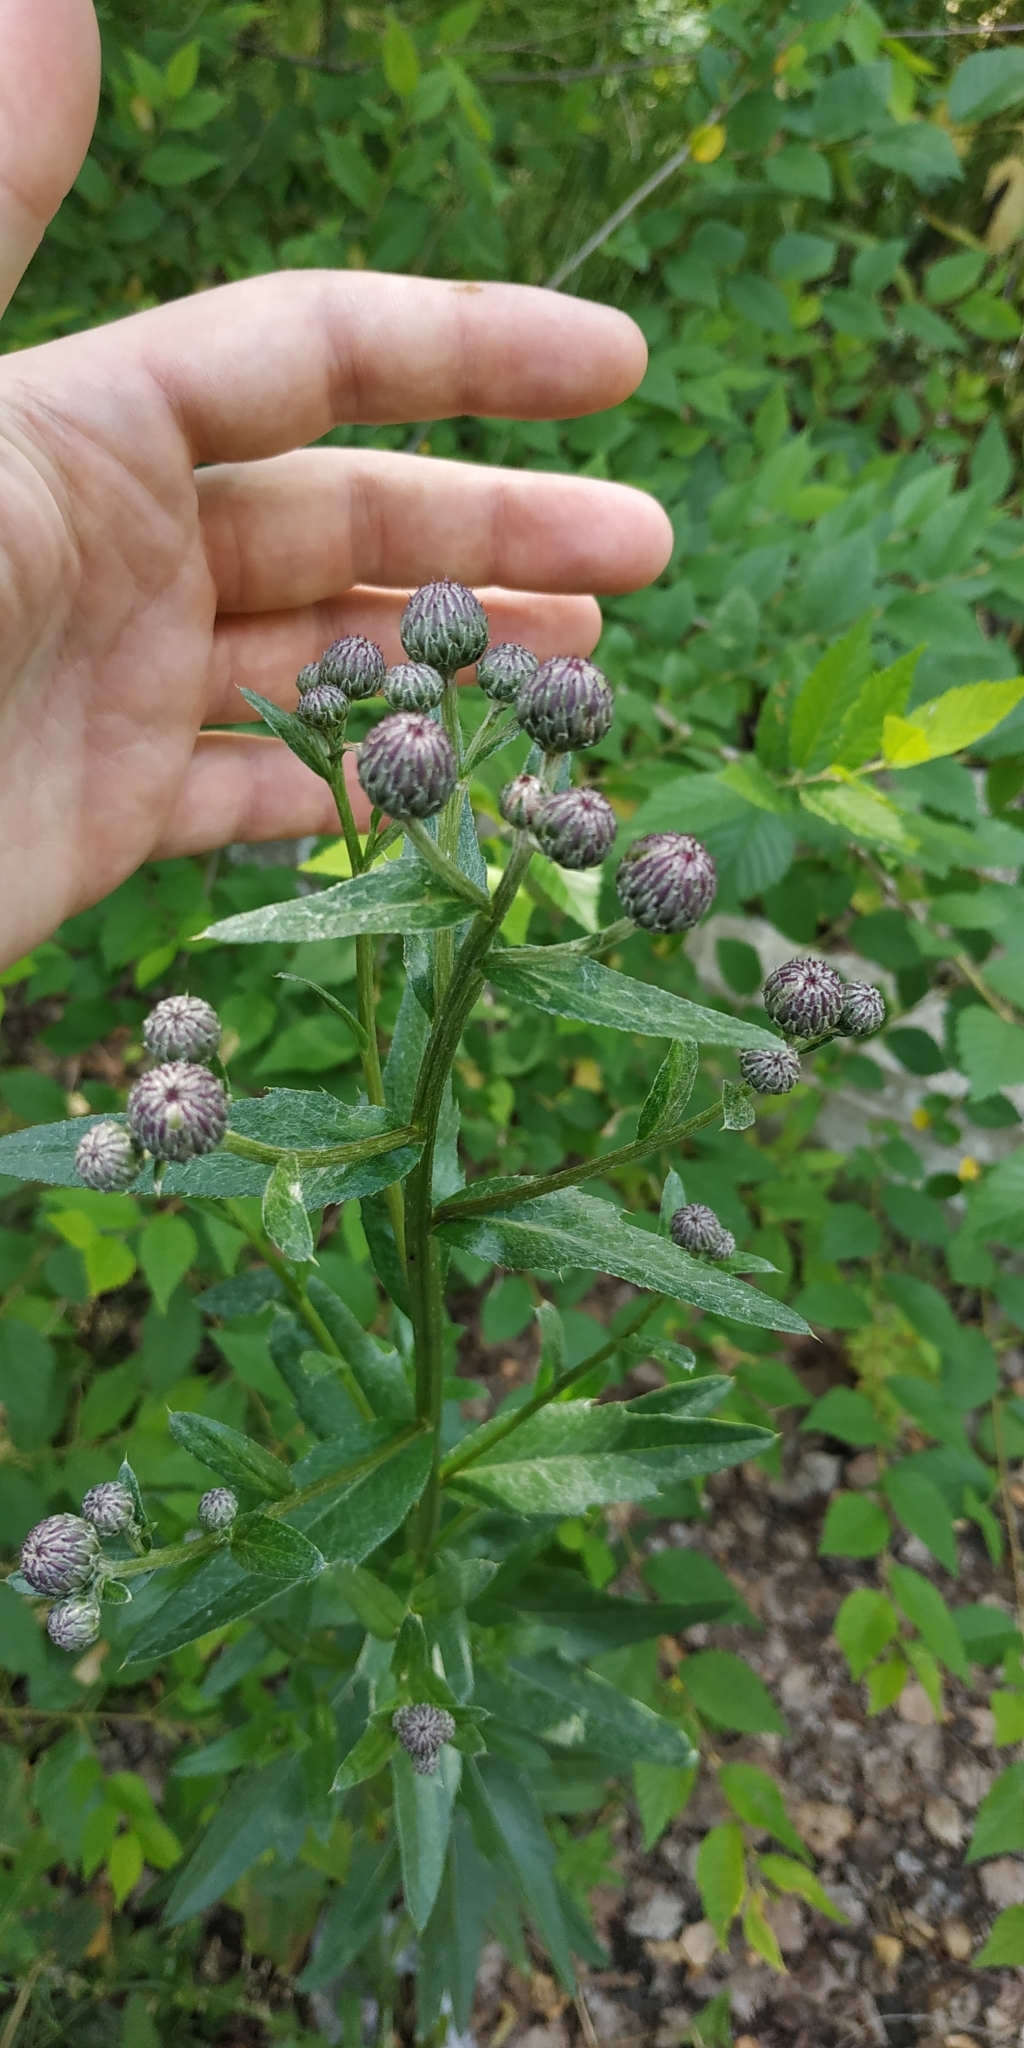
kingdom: Plantae
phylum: Tracheophyta
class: Magnoliopsida
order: Asterales
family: Asteraceae
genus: Cirsium
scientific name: Cirsium arvense
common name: Creeping thistle
